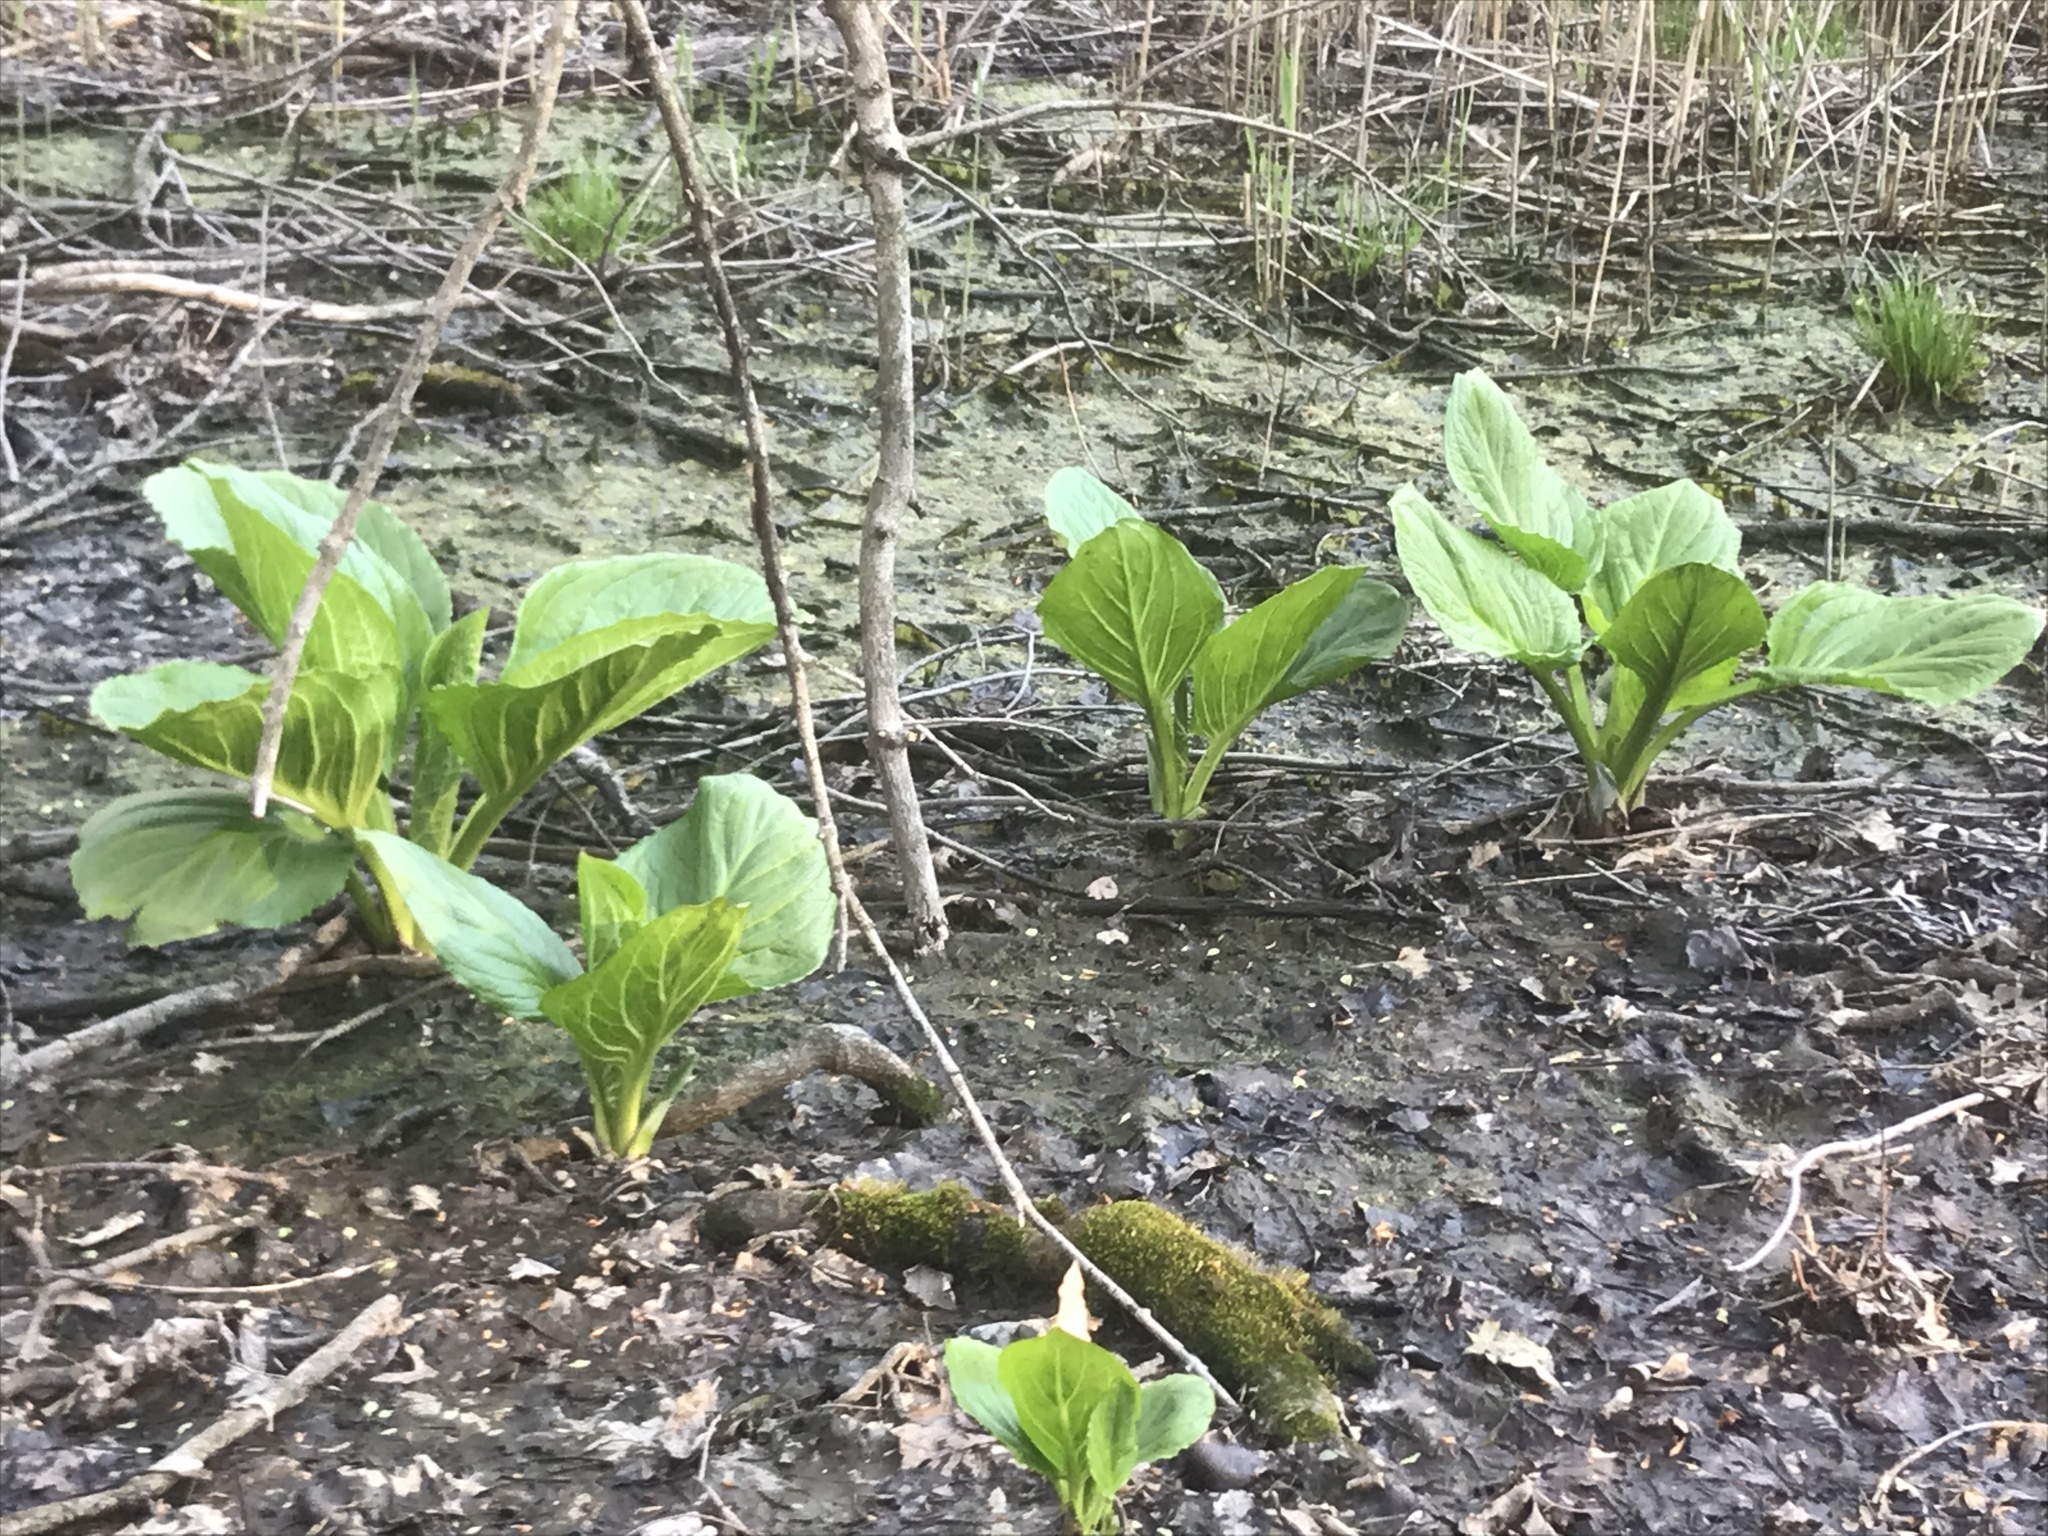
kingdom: Plantae
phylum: Tracheophyta
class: Liliopsida
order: Alismatales
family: Araceae
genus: Symplocarpus
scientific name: Symplocarpus foetidus
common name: Eastern skunk cabbage
